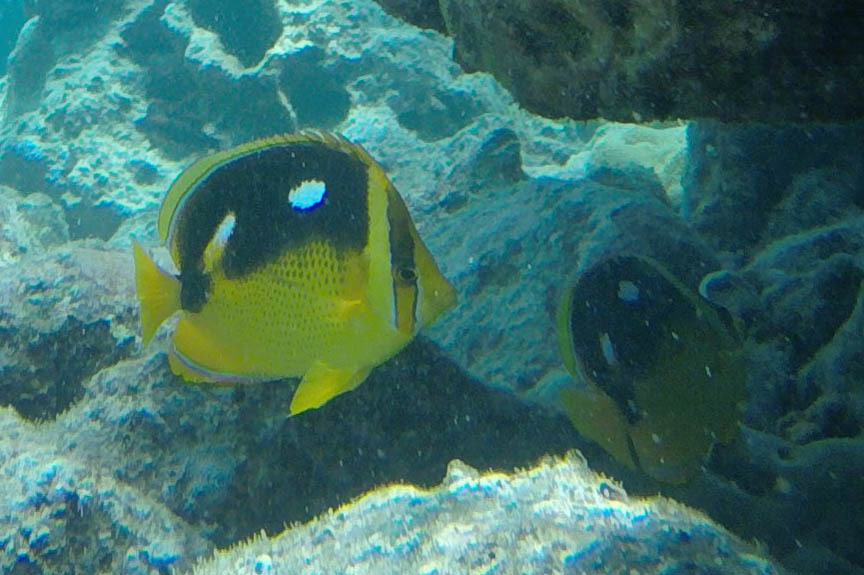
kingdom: Animalia
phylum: Chordata
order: Perciformes
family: Chaetodontidae
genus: Chaetodon
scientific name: Chaetodon quadrimaculatus
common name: Fourspot butterflyfish
